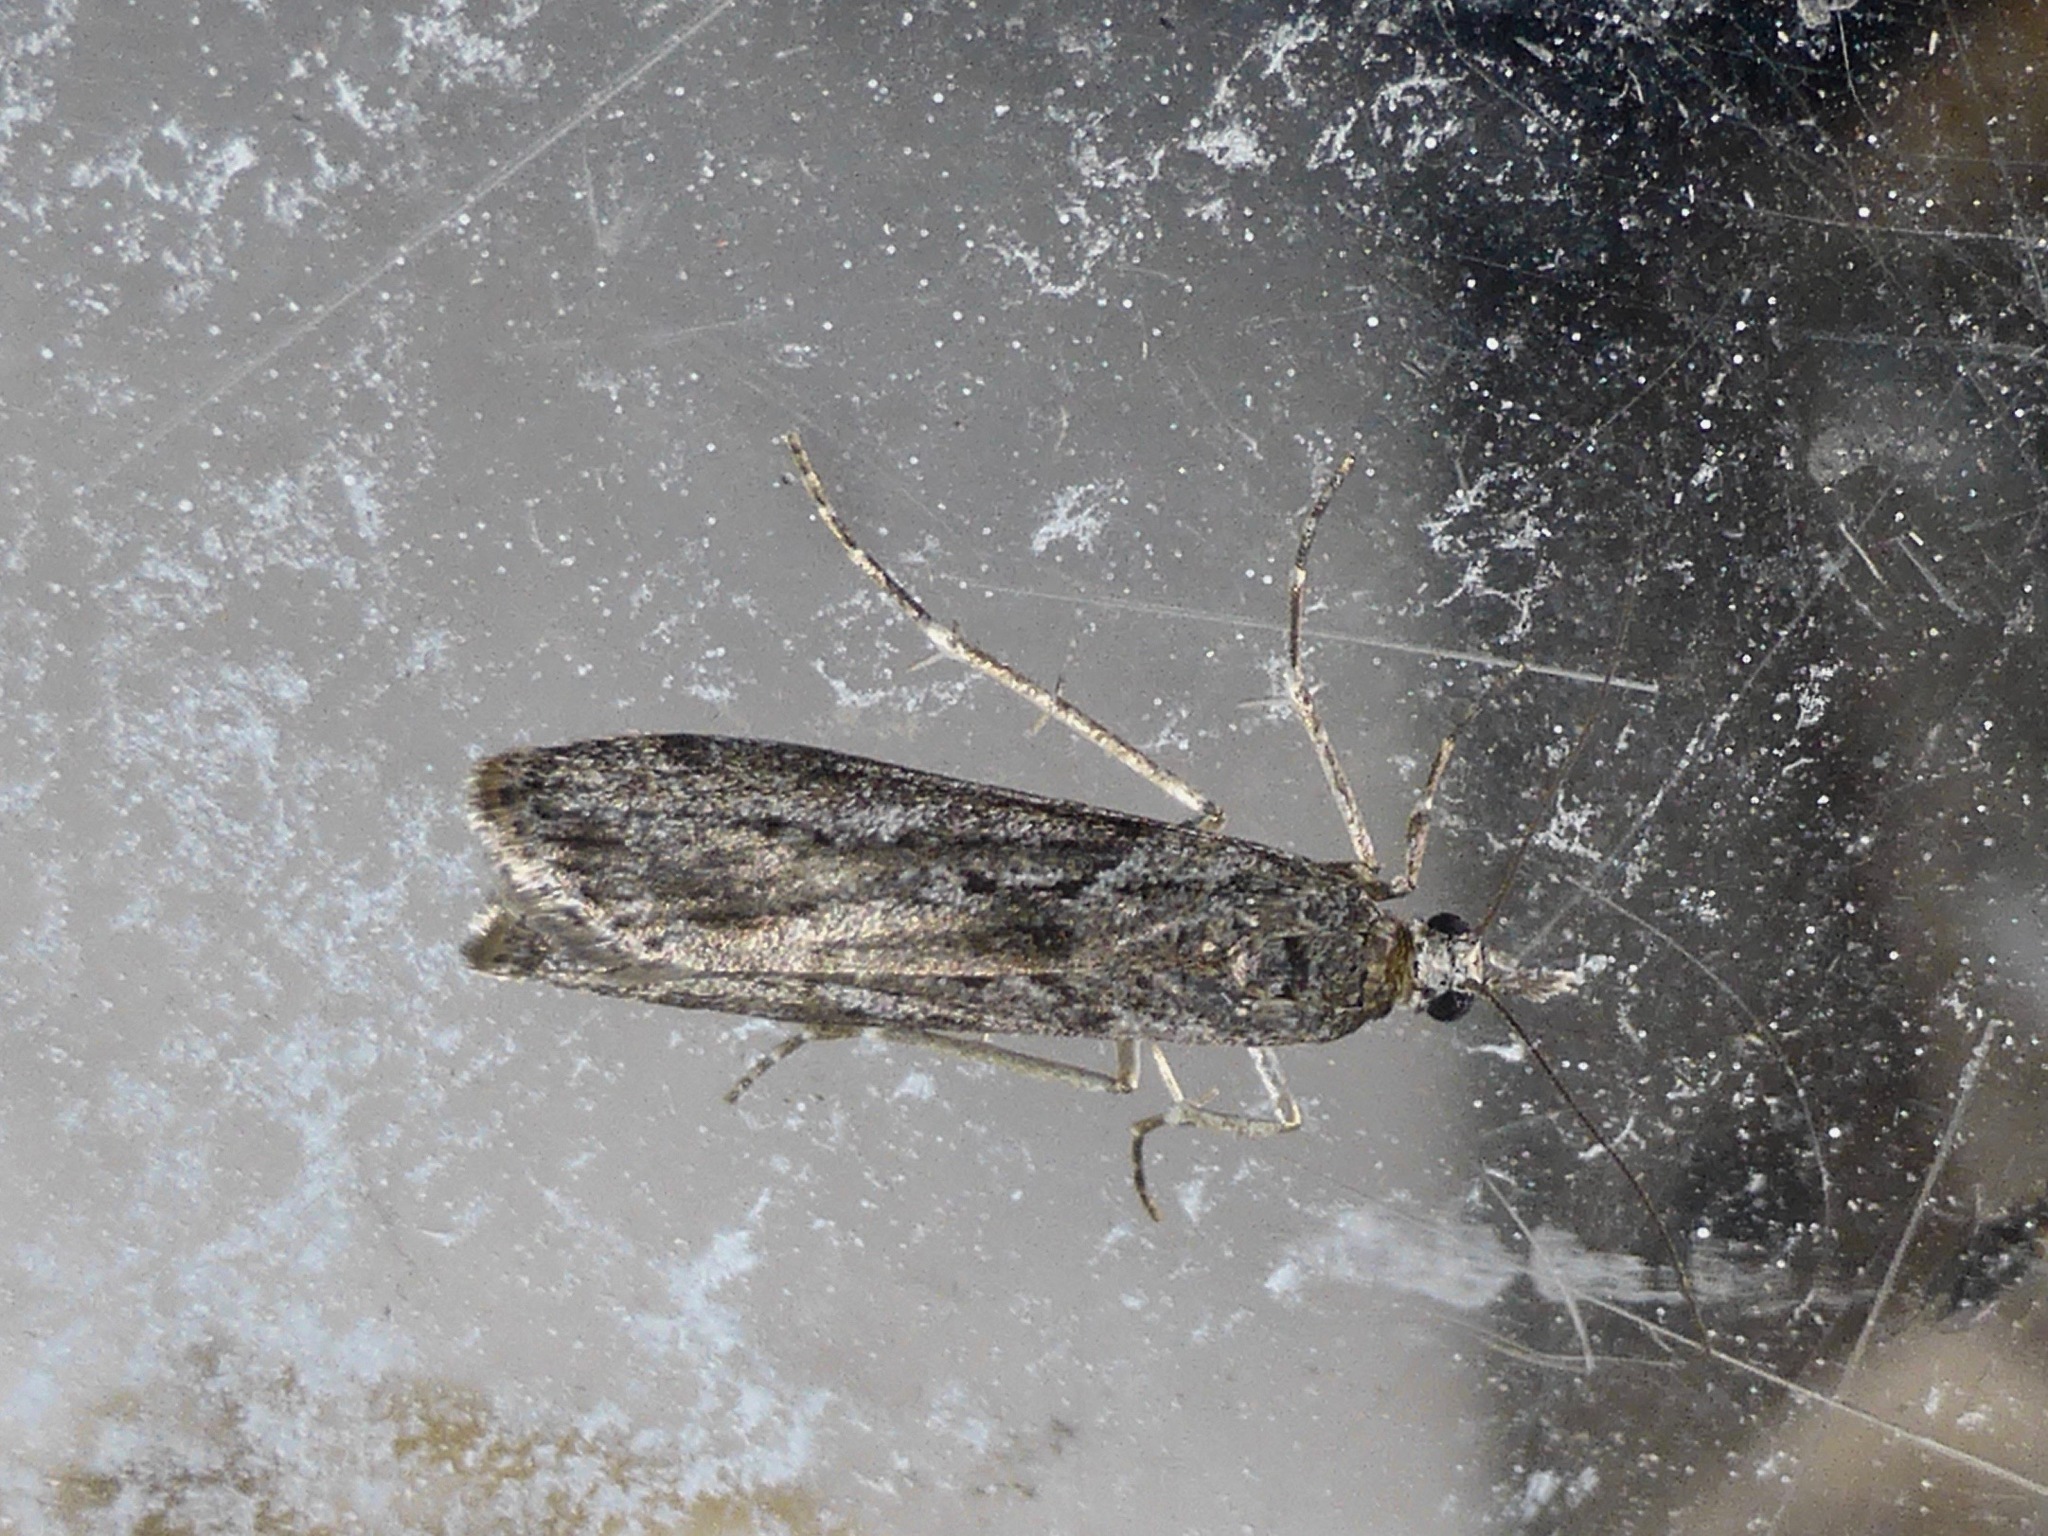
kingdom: Animalia
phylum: Arthropoda
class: Insecta
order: Lepidoptera
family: Crambidae
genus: Eudonia
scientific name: Eudonia leptalea
